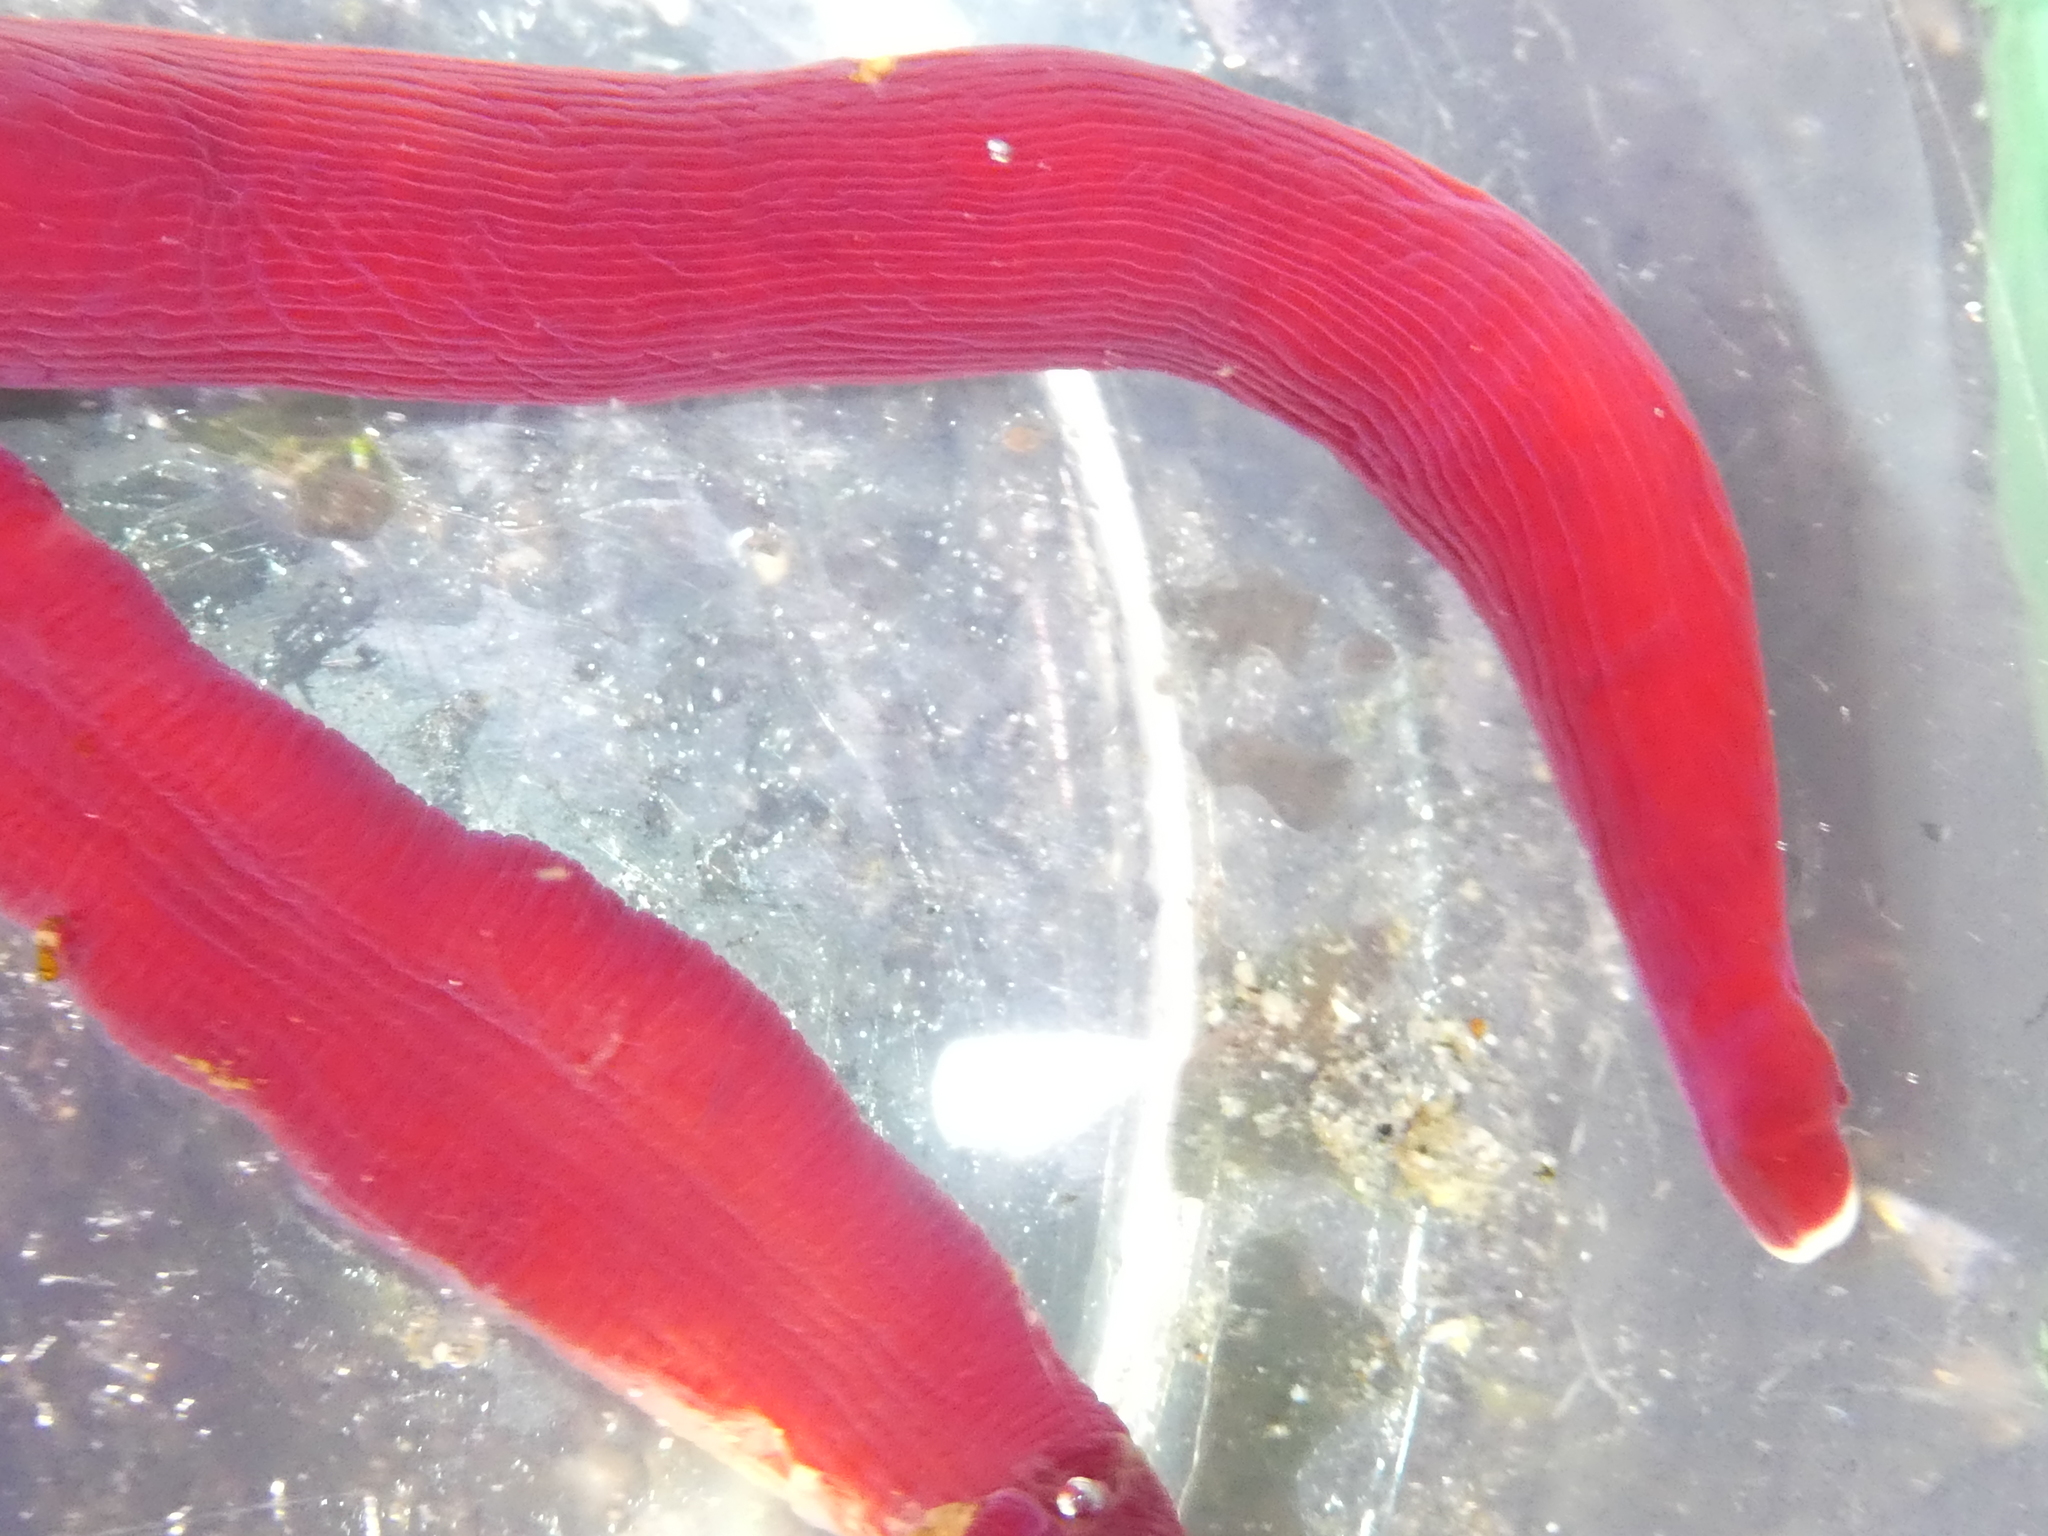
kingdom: Animalia
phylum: Nemertea
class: Pilidiophora
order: Heteronemertea
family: Lineidae
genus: Kulikovia
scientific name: Kulikovia montgomeryi
